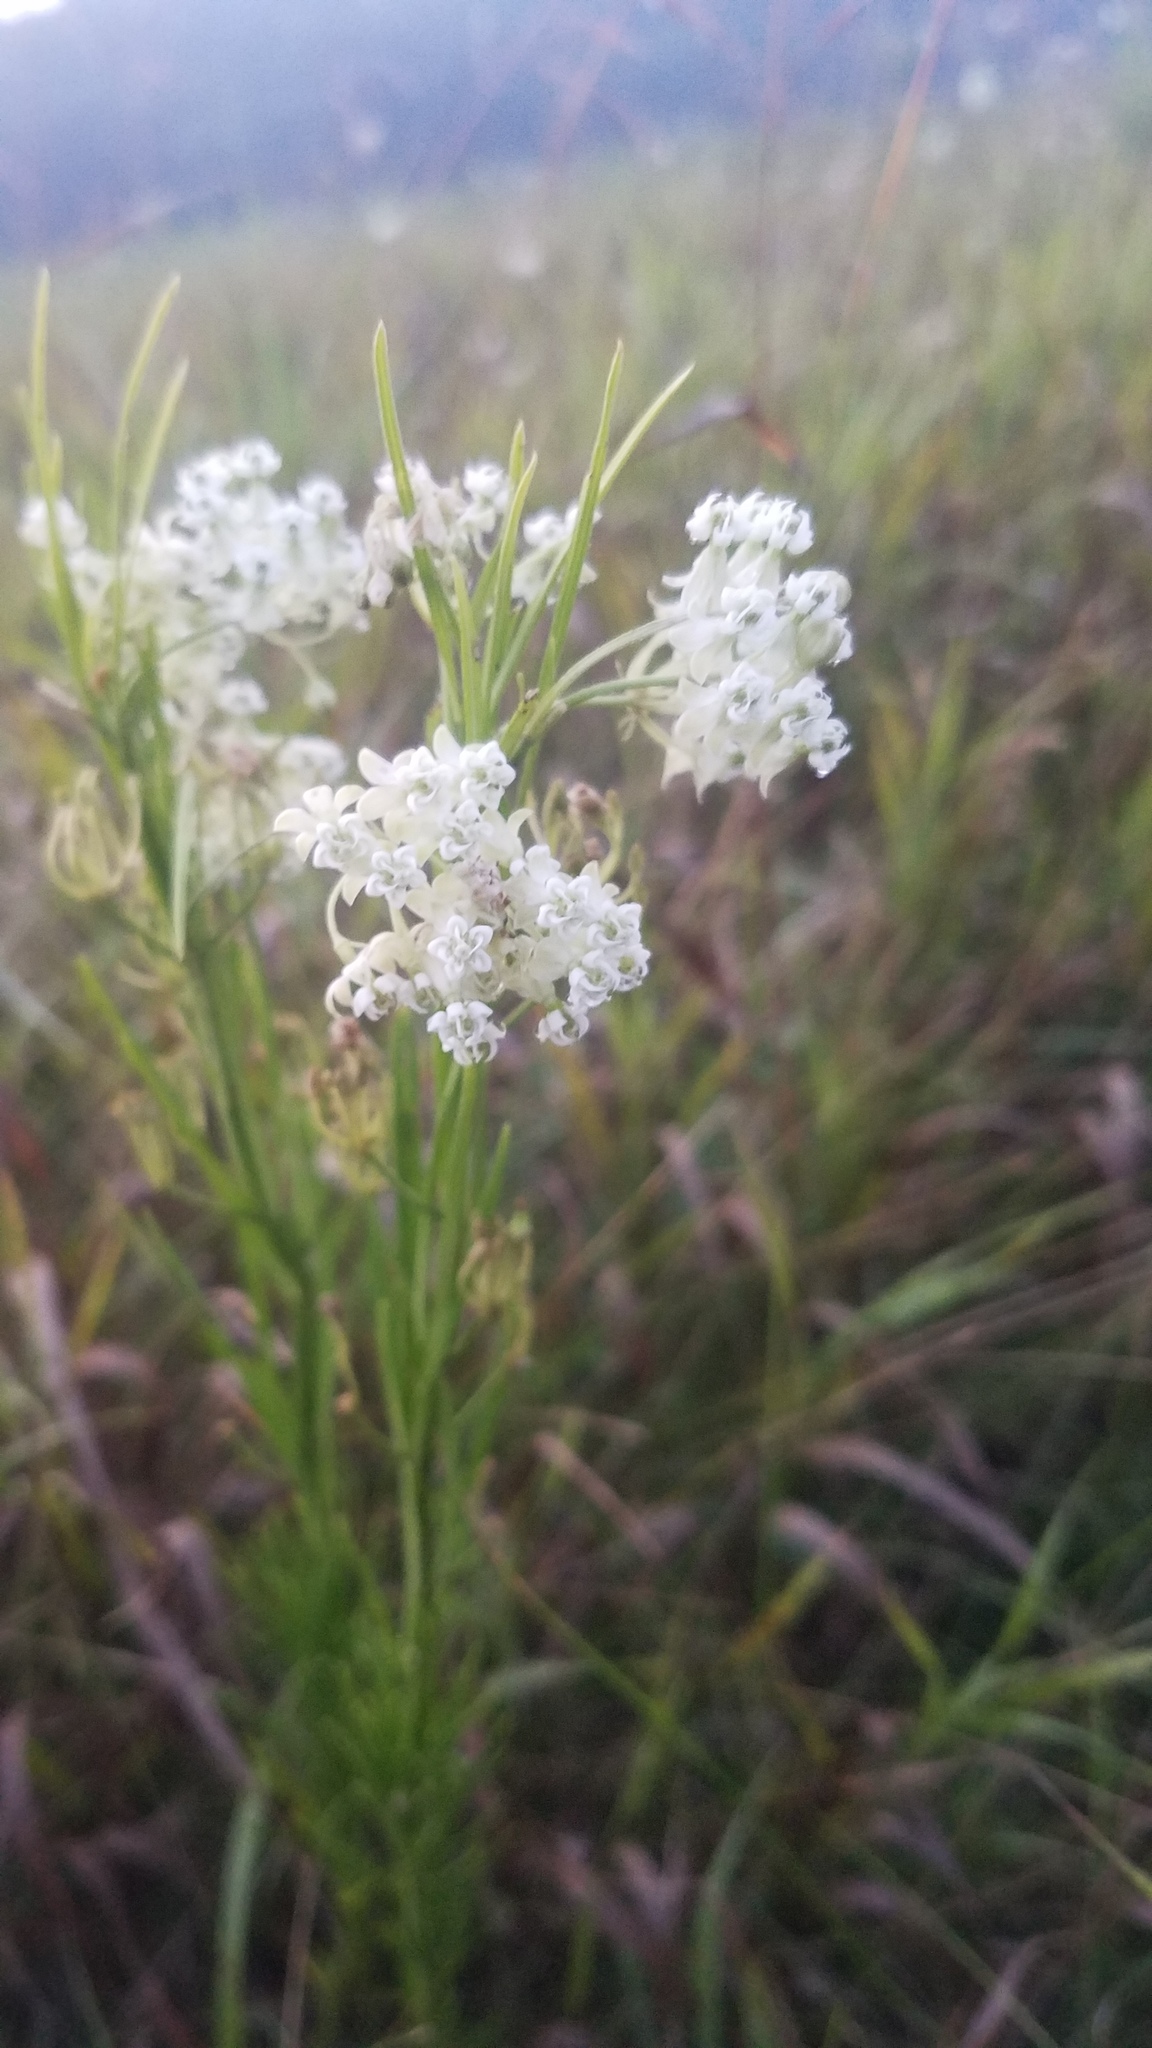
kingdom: Plantae
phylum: Tracheophyta
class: Magnoliopsida
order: Gentianales
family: Apocynaceae
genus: Asclepias
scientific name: Asclepias verticillata
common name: Eastern whorled milkweed
